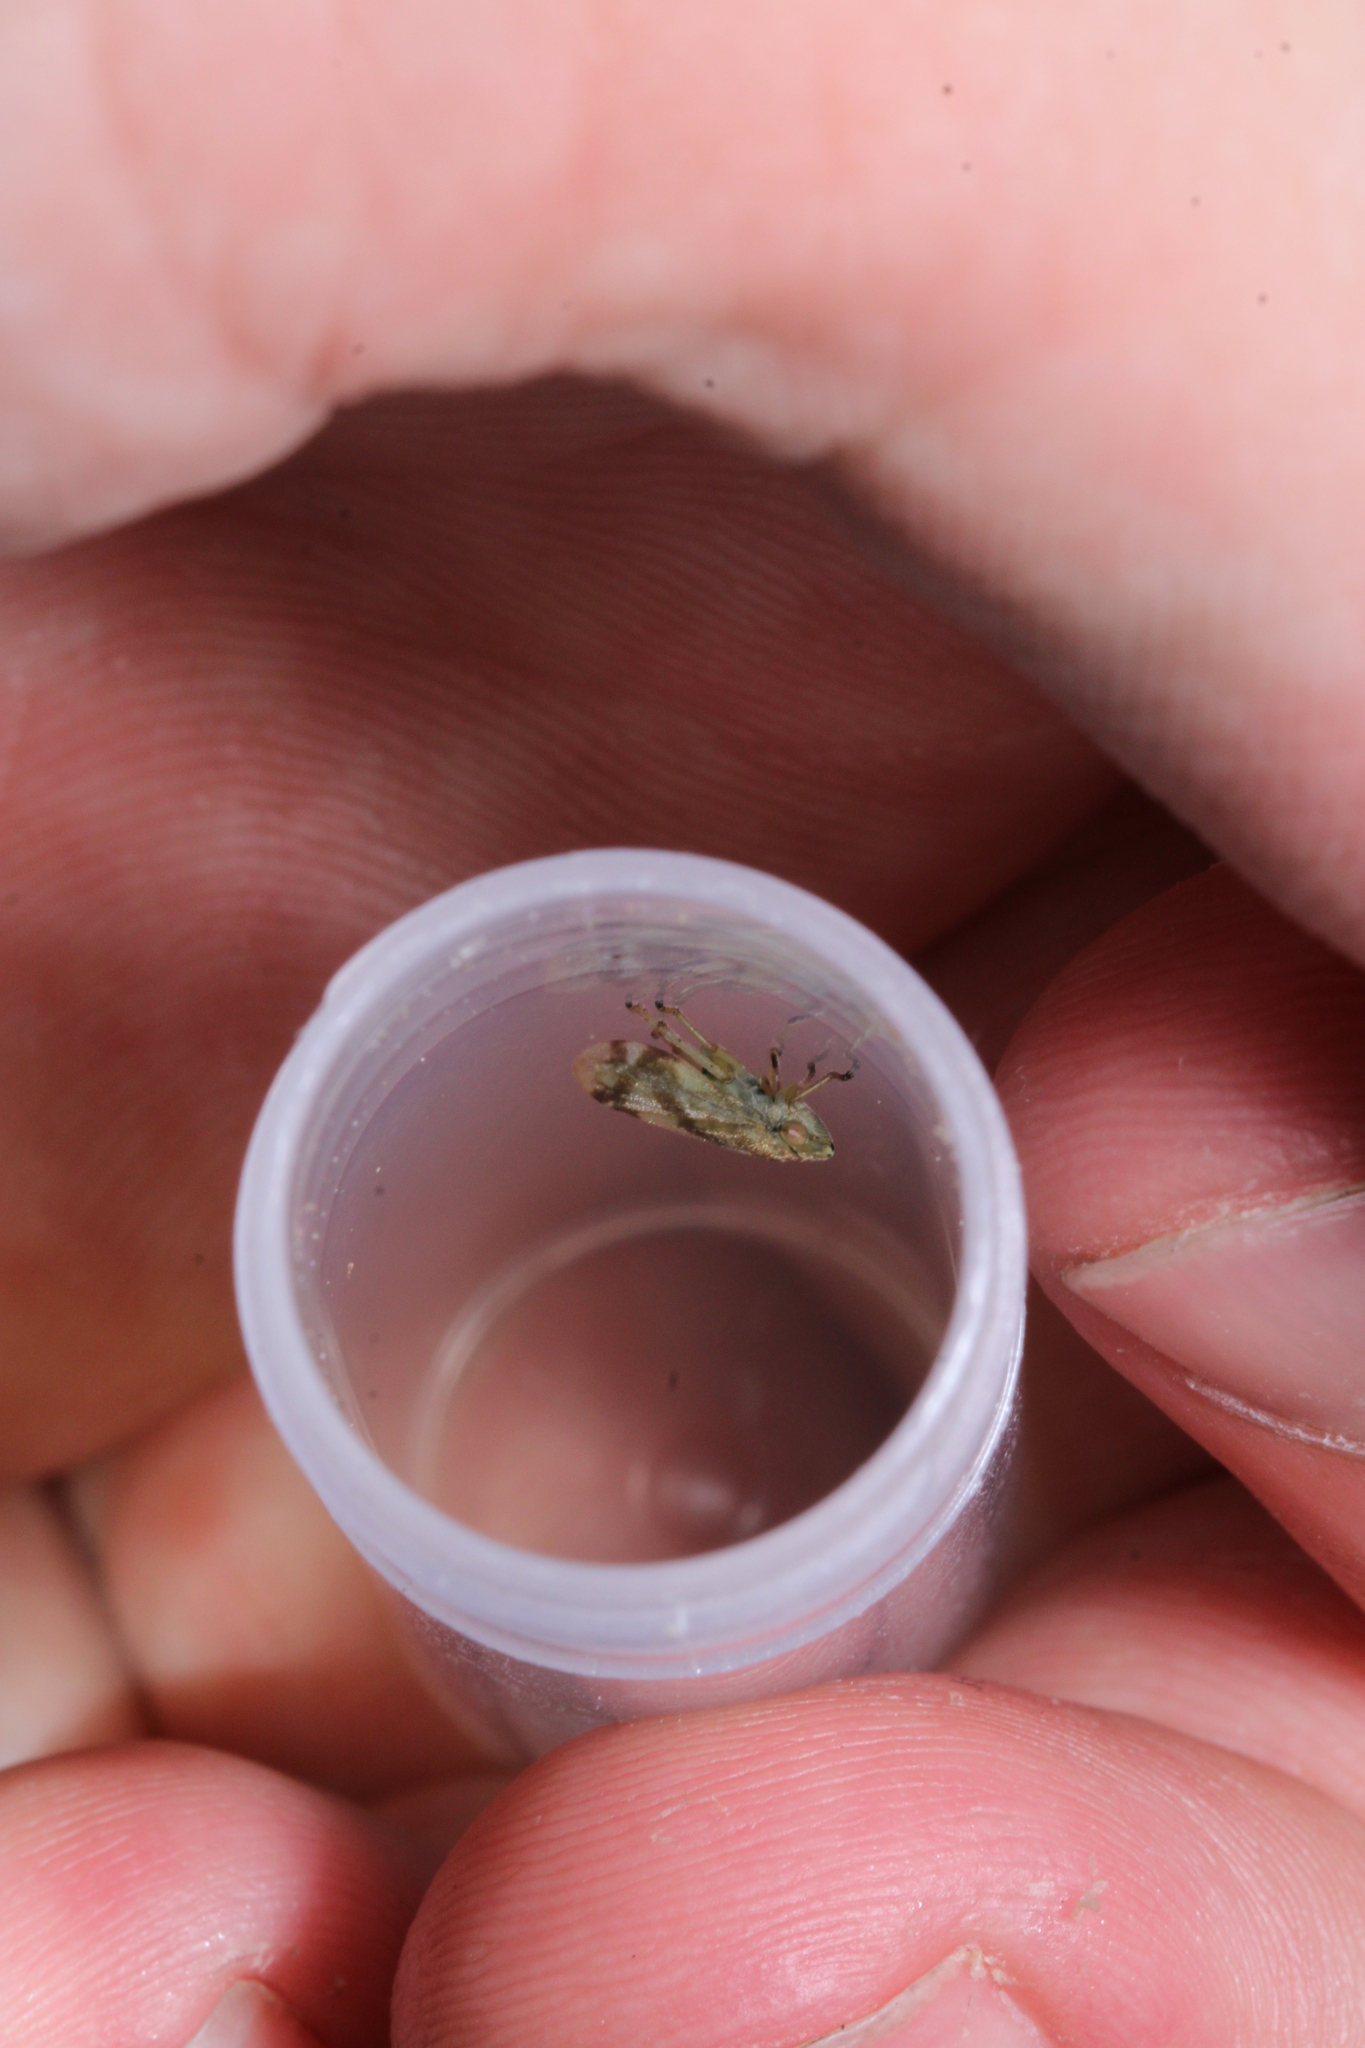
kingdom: Animalia
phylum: Arthropoda
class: Insecta
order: Hemiptera
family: Aphrophoridae
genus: Philaenus
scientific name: Philaenus spumarius
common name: Meadow spittlebug
